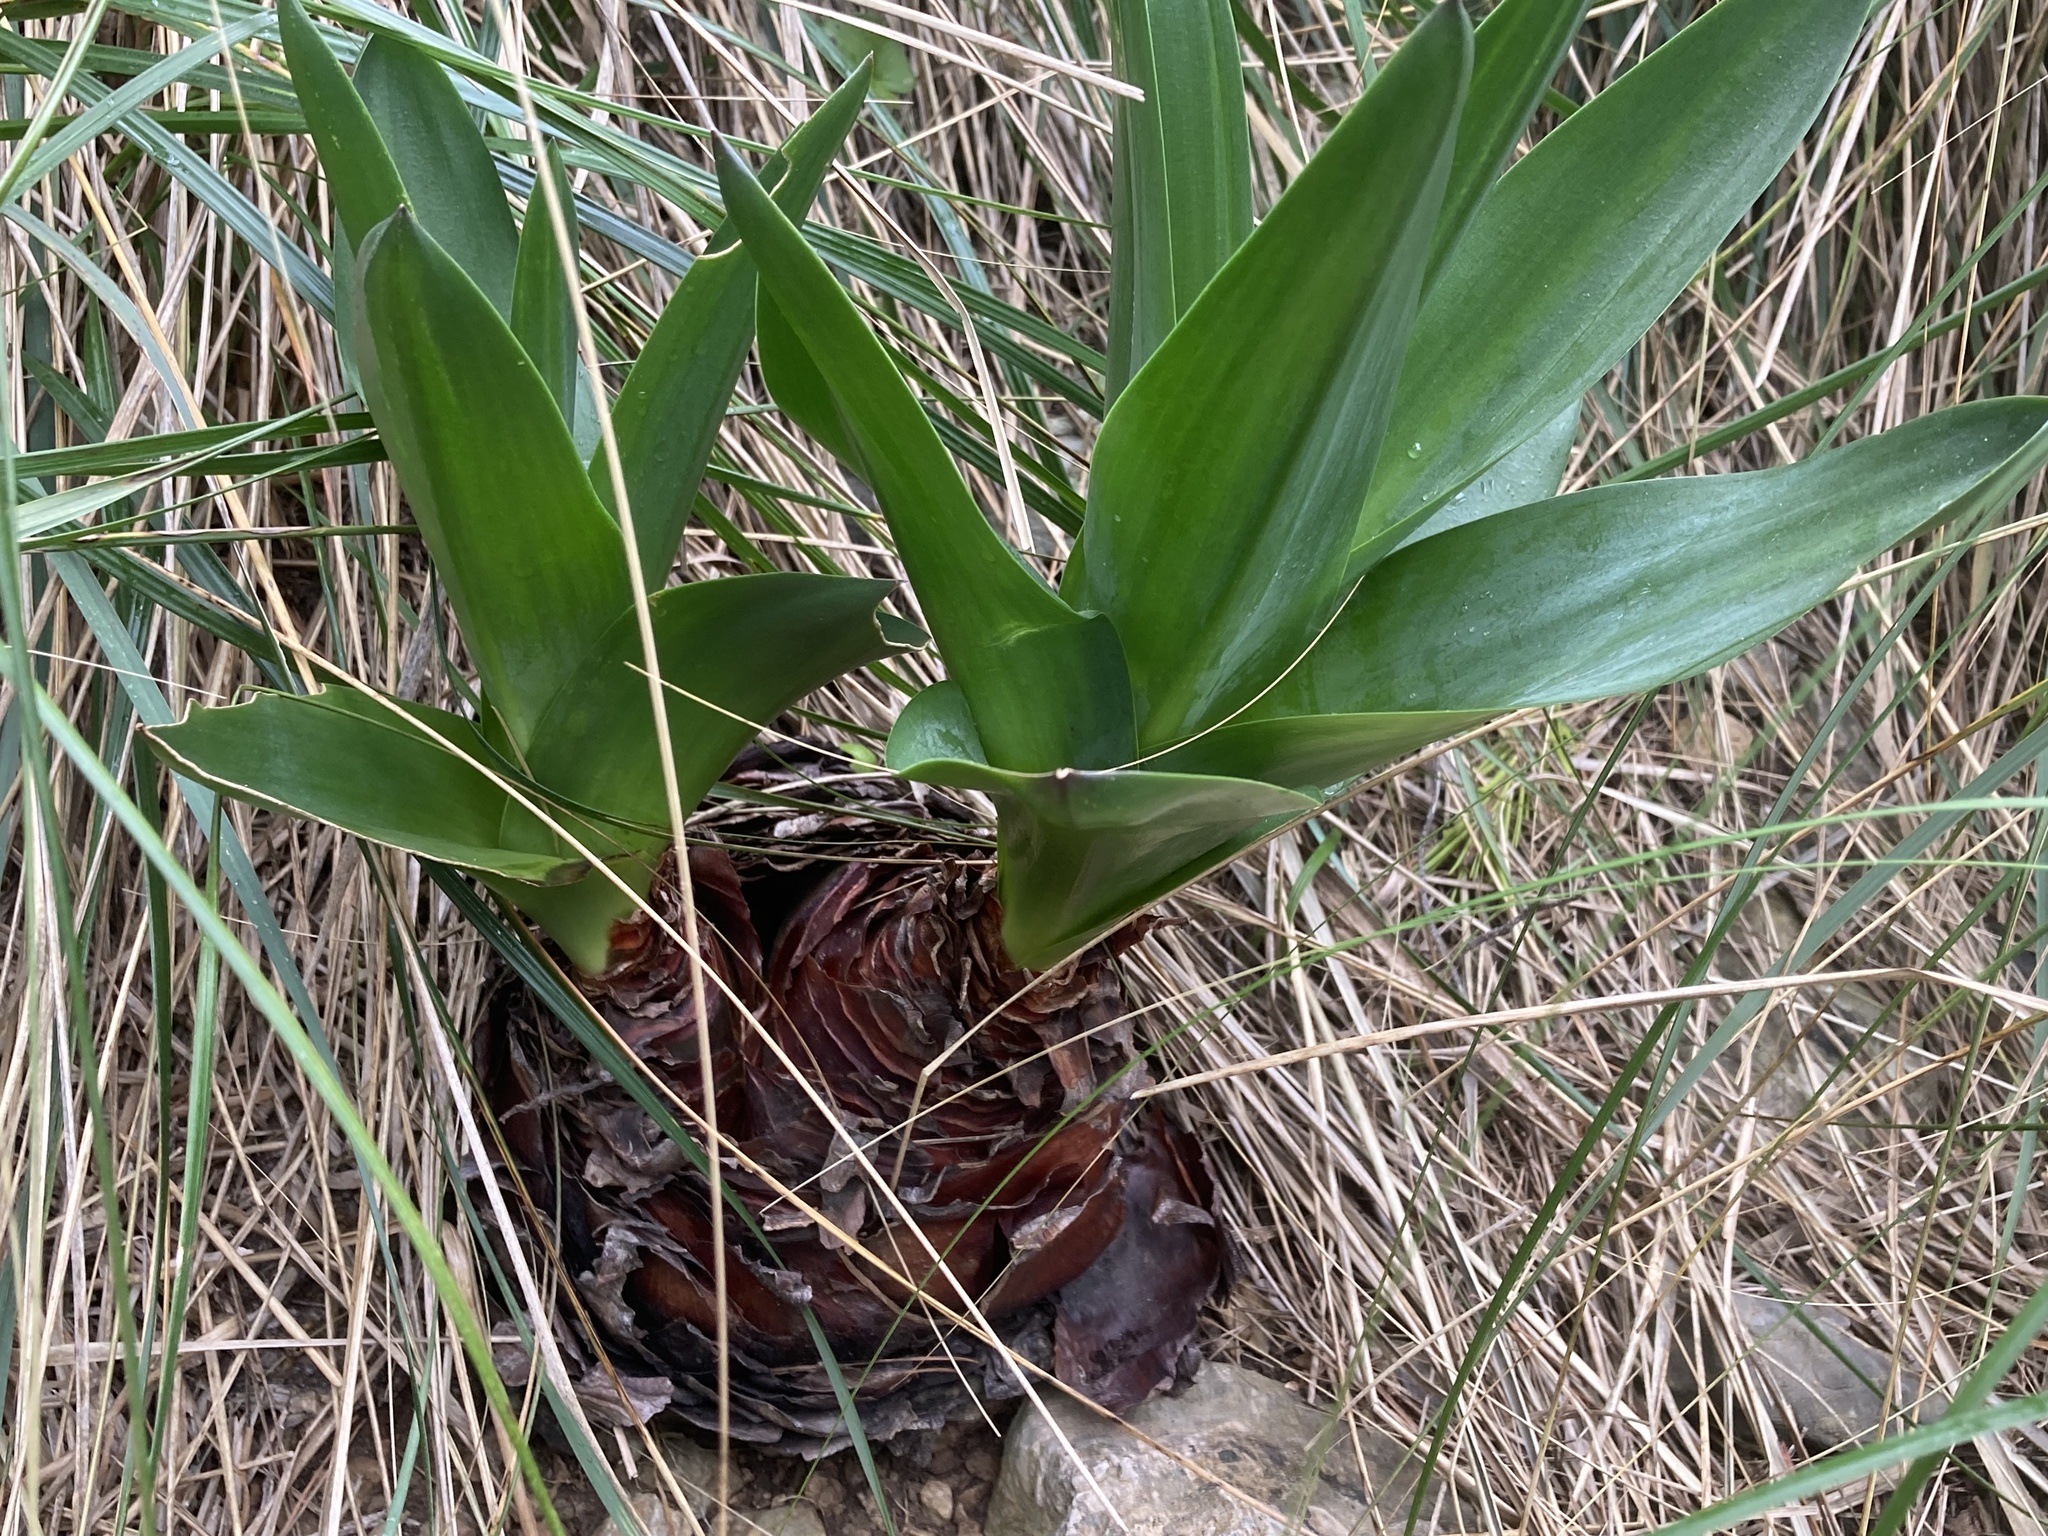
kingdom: Plantae
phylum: Tracheophyta
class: Liliopsida
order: Asparagales
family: Asparagaceae
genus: Drimia
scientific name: Drimia maritima
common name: Maritime squill
